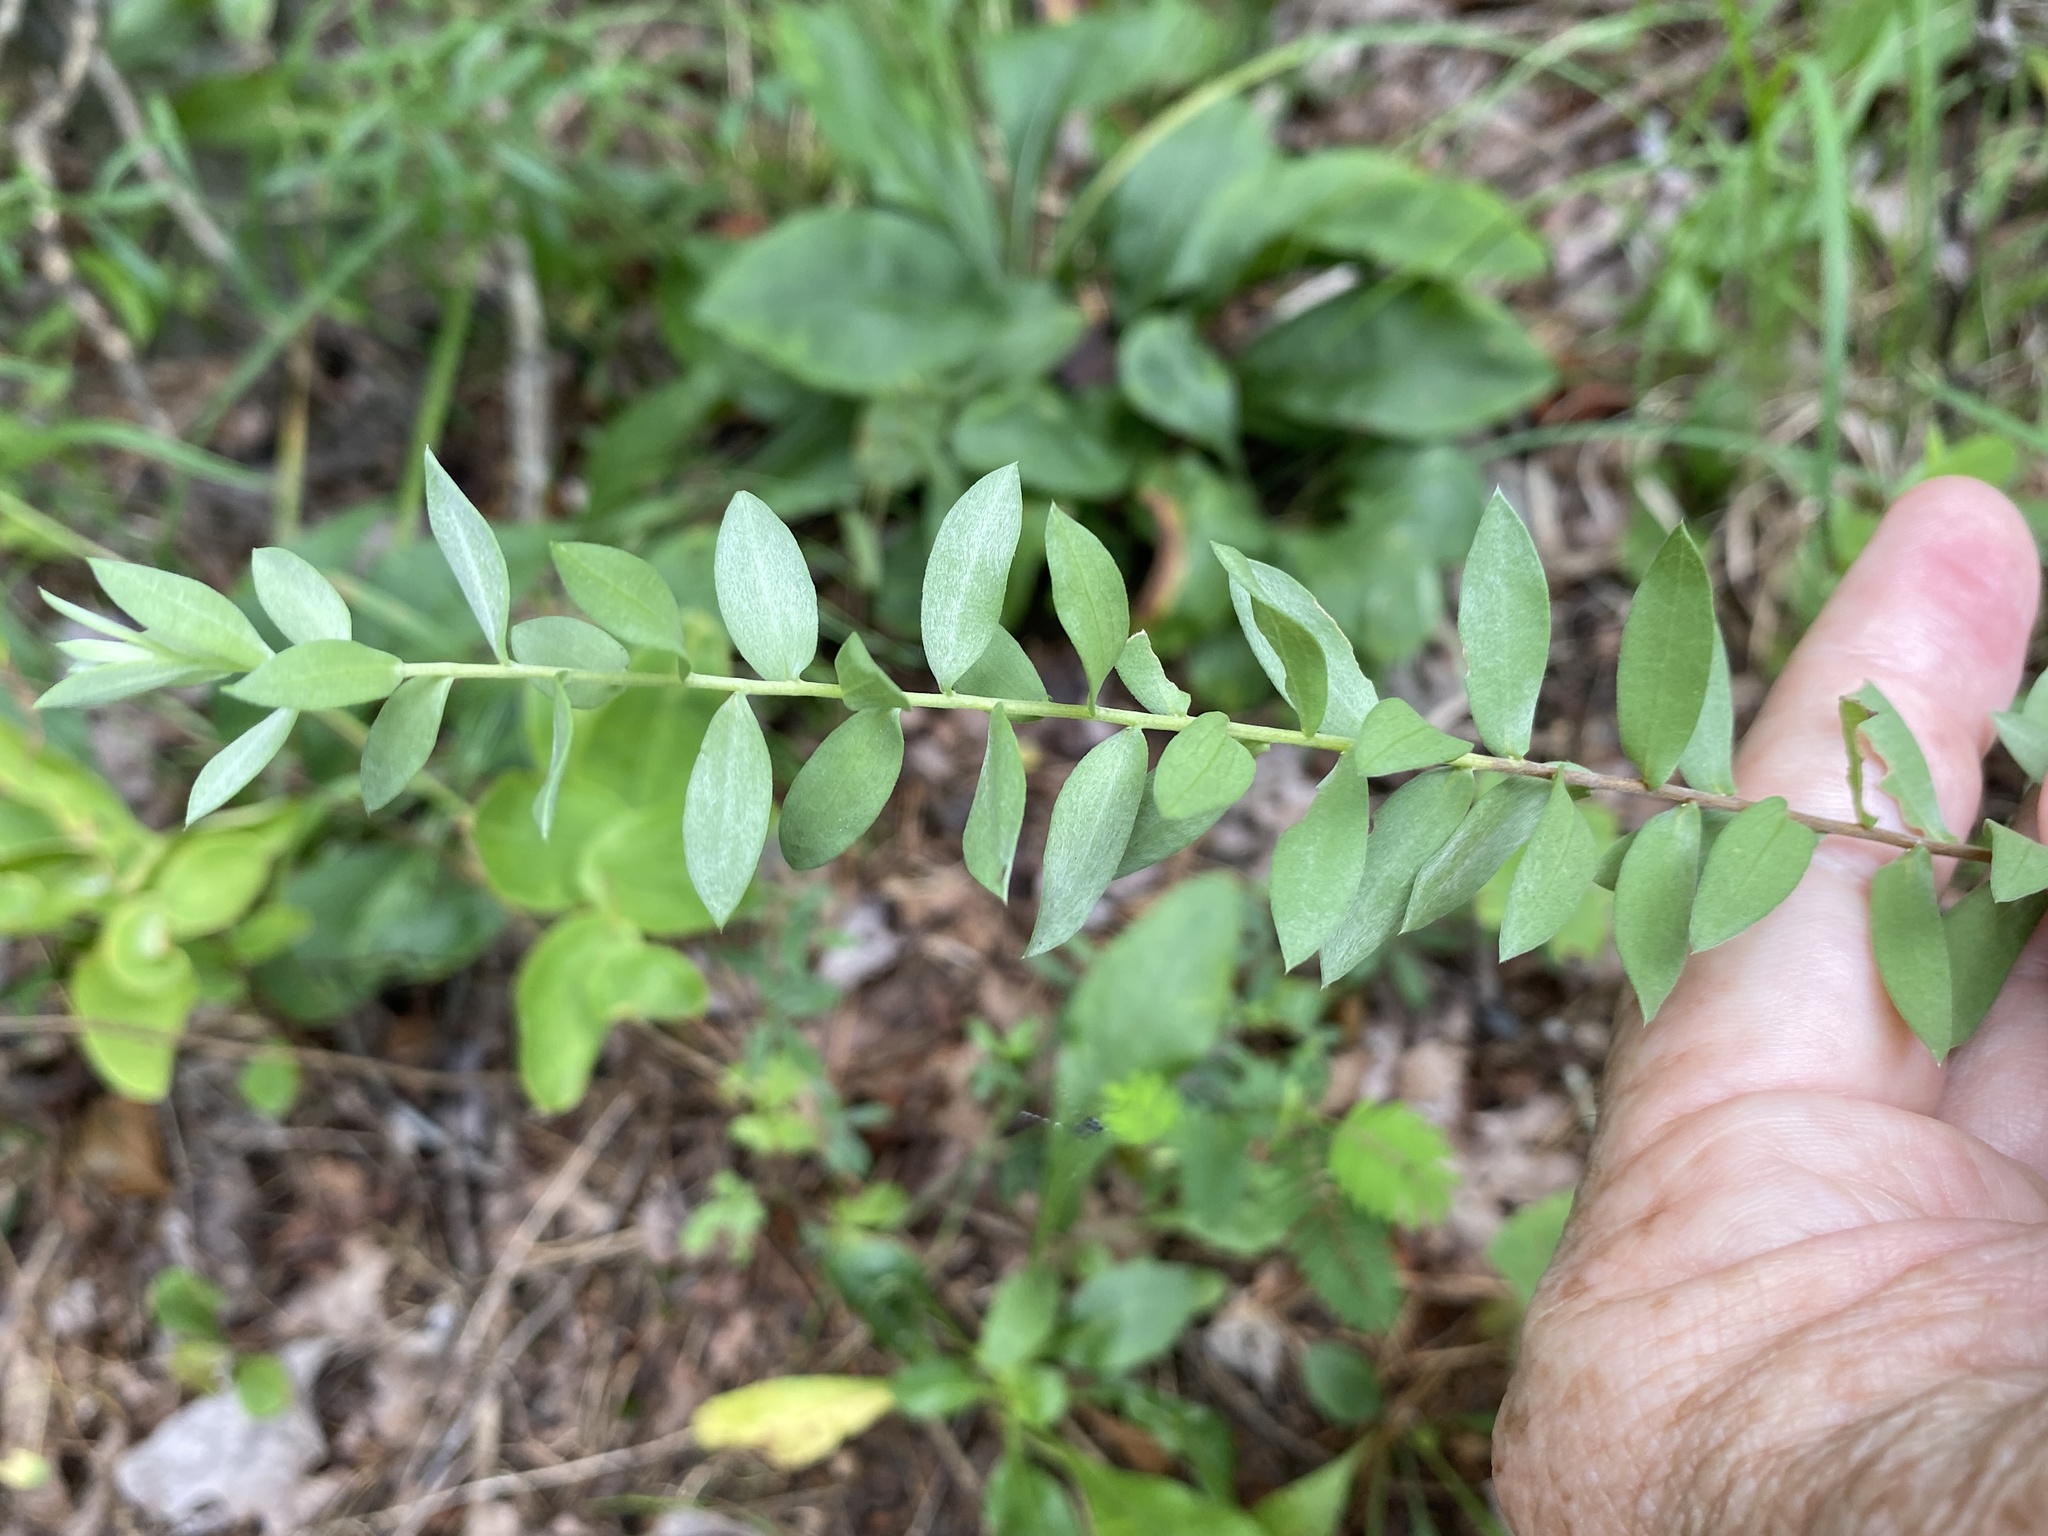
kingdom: Plantae
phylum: Tracheophyta
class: Magnoliopsida
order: Asterales
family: Asteraceae
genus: Symphyotrichum
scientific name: Symphyotrichum concolor
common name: Eastern silver aster
